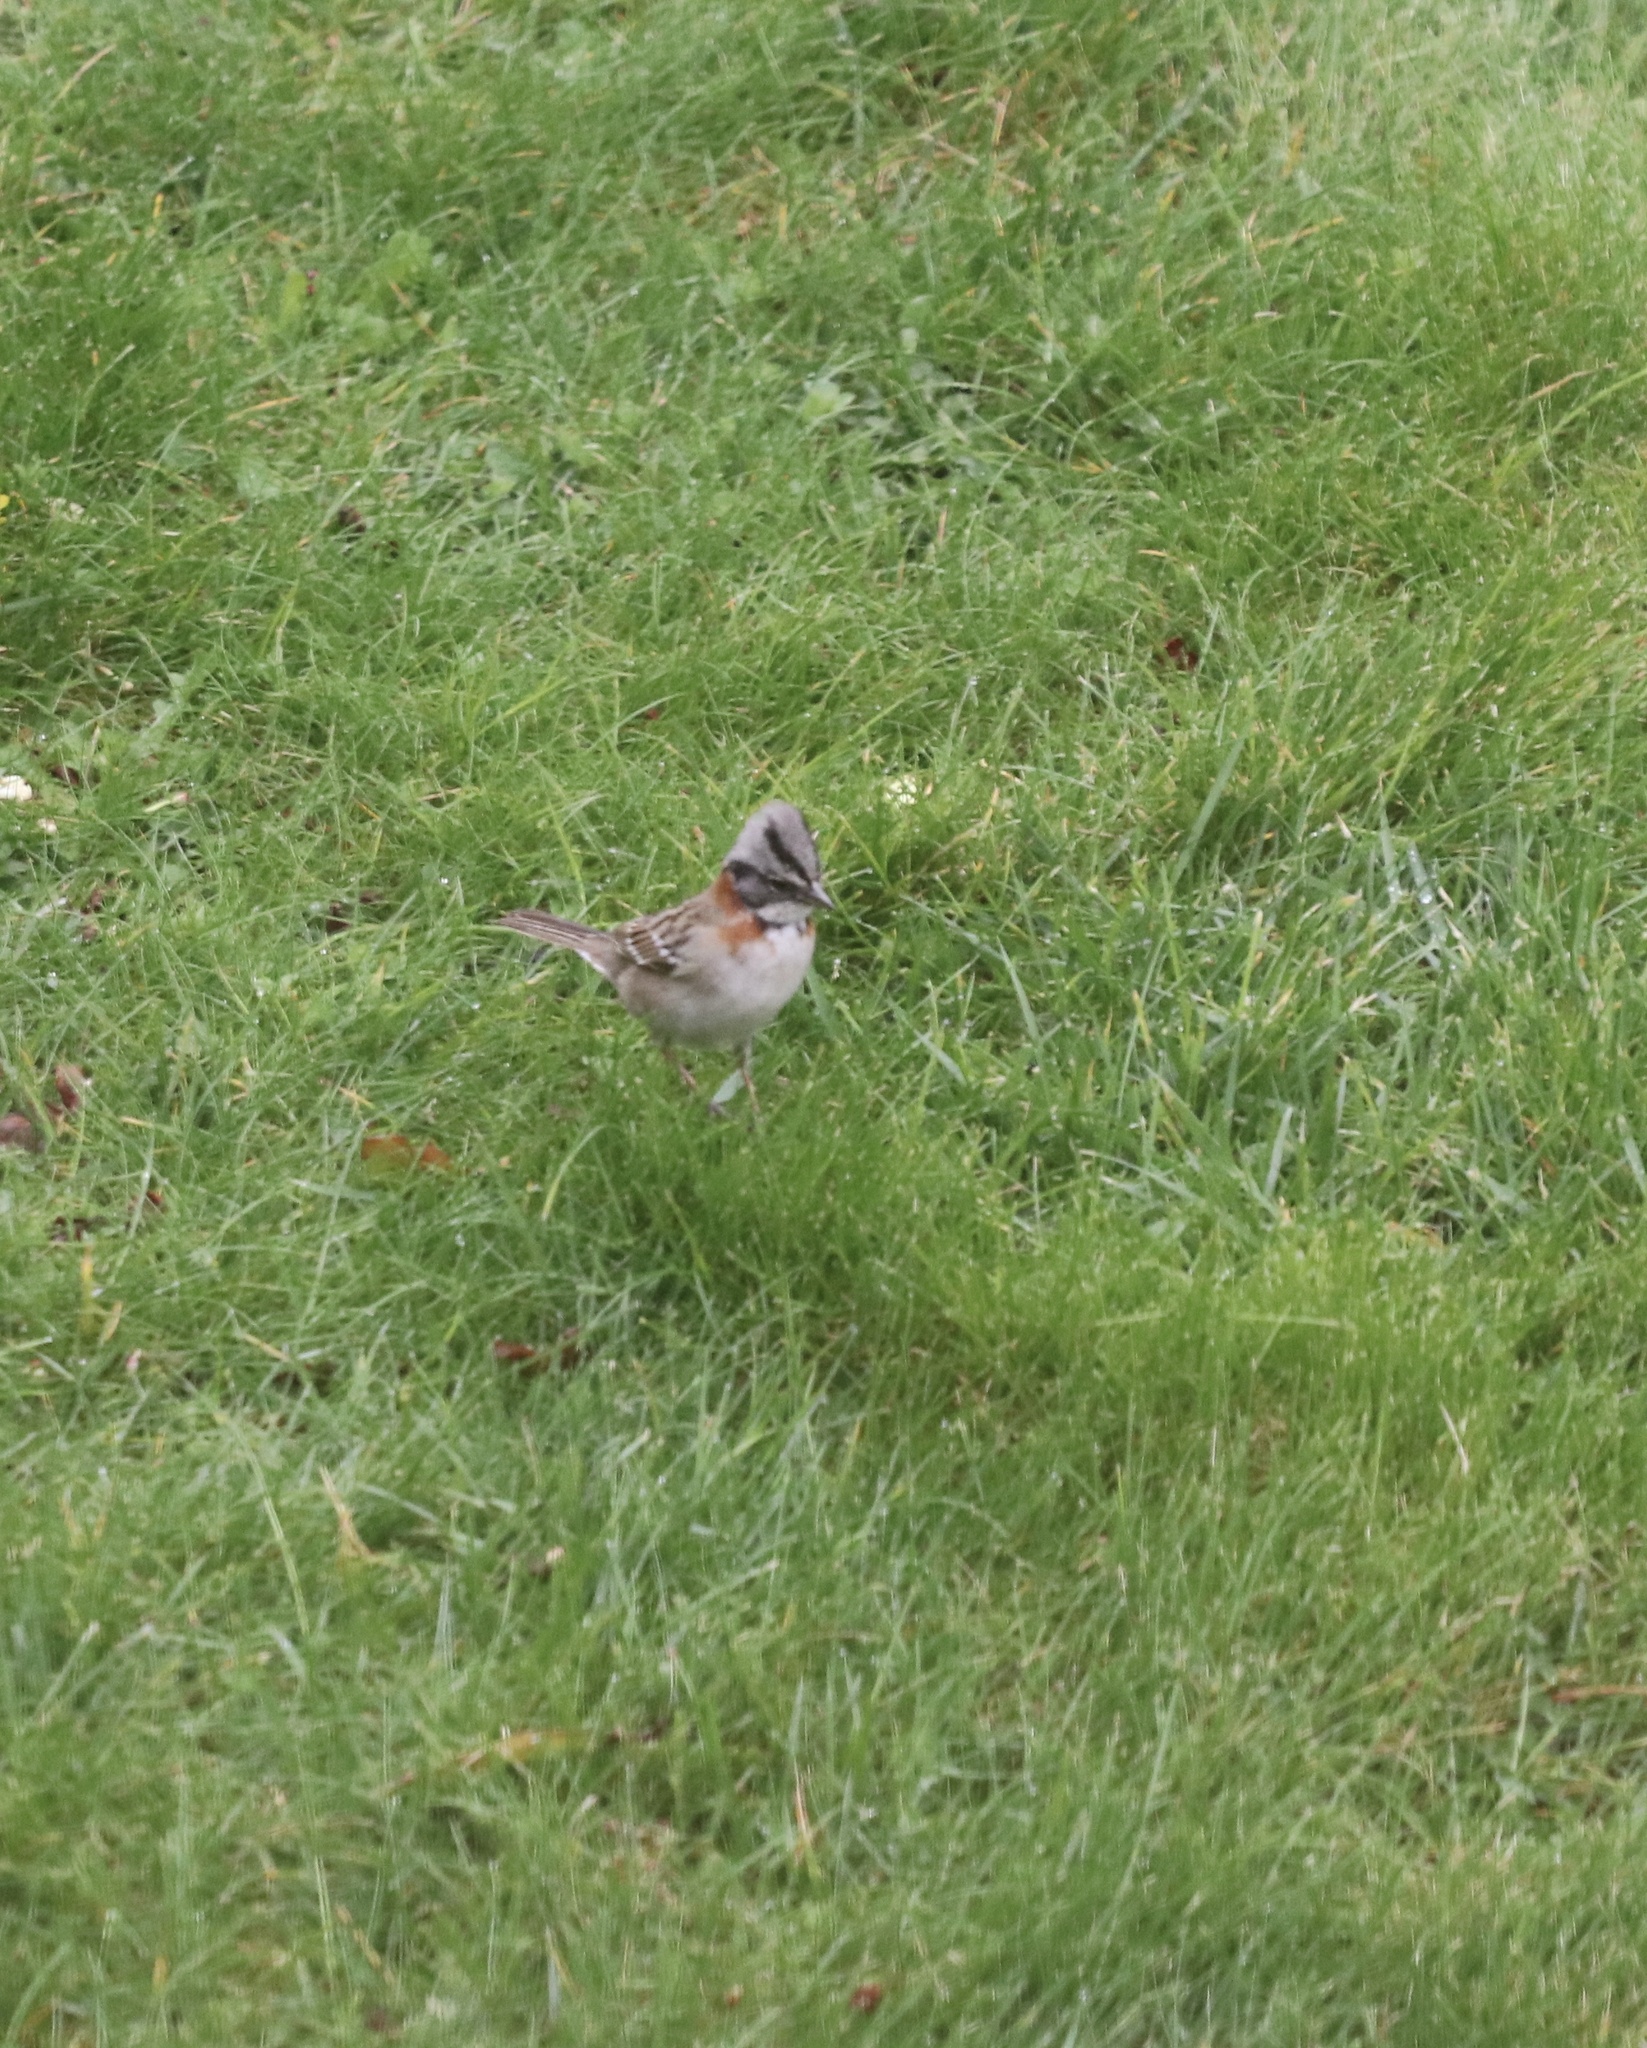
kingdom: Animalia
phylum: Chordata
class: Aves
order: Passeriformes
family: Passerellidae
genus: Zonotrichia
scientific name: Zonotrichia capensis
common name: Rufous-collared sparrow
